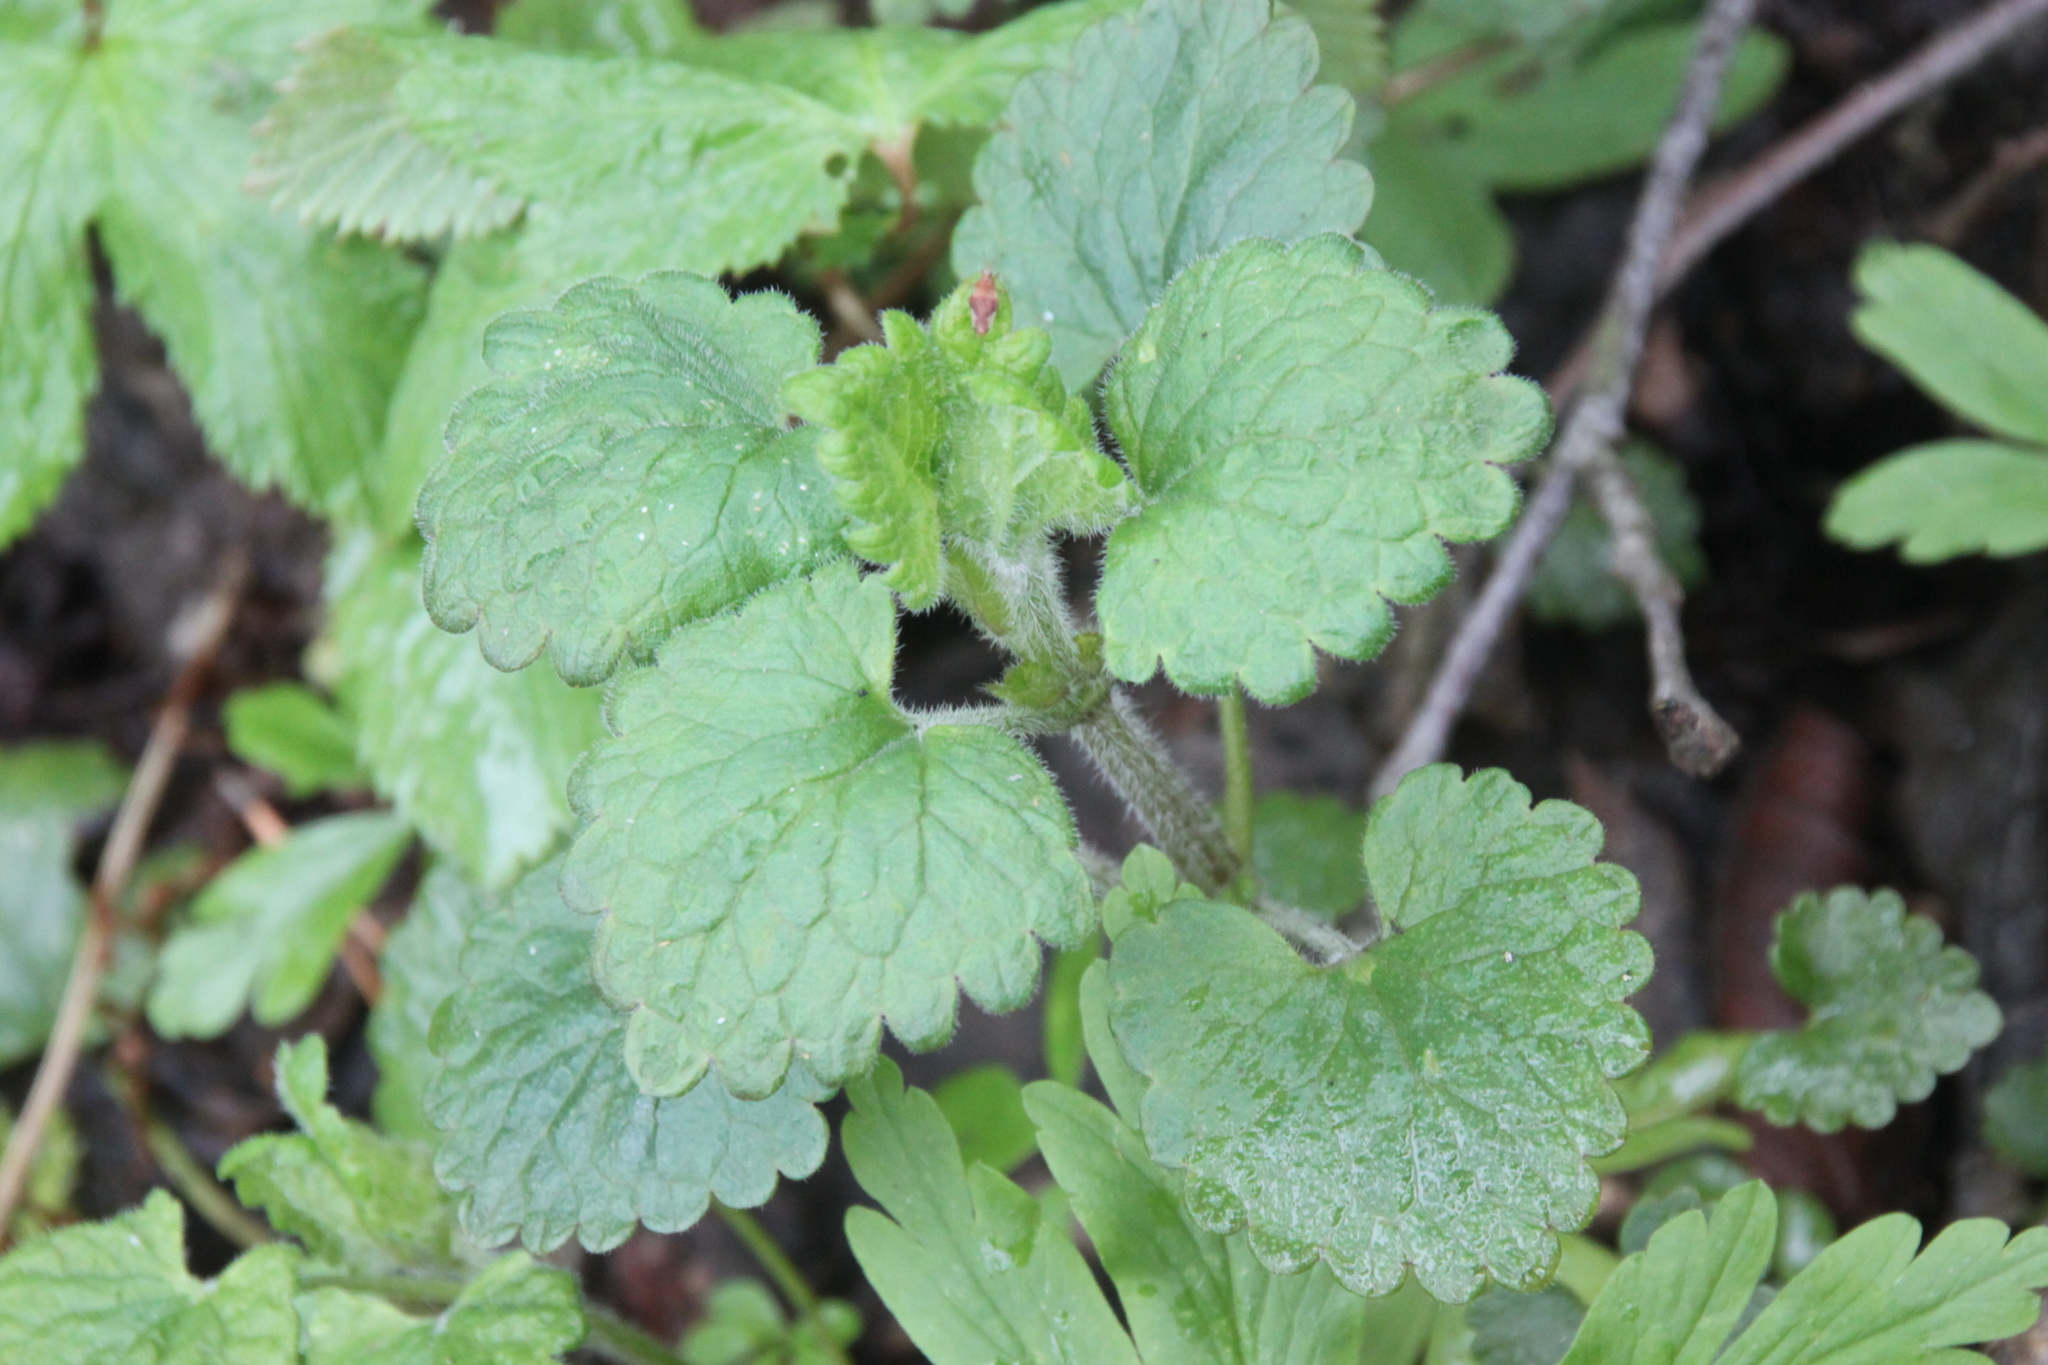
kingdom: Plantae
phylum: Tracheophyta
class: Magnoliopsida
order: Lamiales
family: Lamiaceae
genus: Glechoma
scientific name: Glechoma hederacea
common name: Ground ivy
